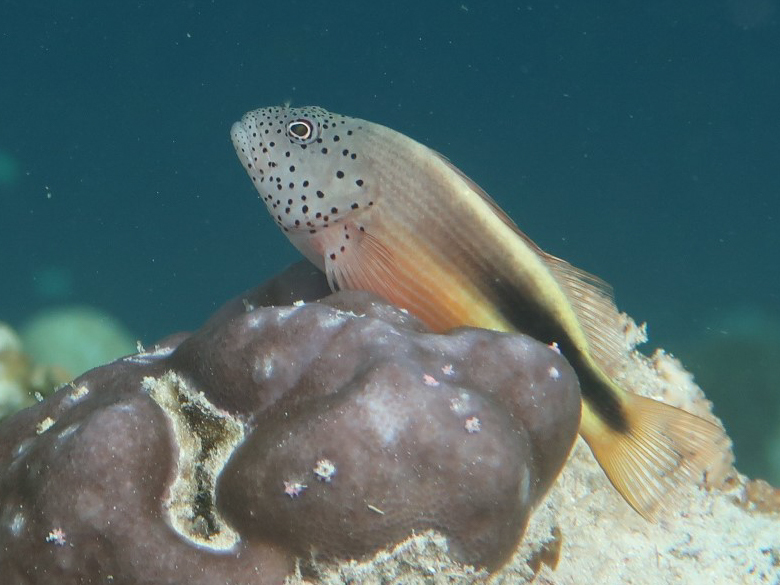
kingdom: Animalia
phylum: Chordata
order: Perciformes
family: Cirrhitidae
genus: Paracirrhites
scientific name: Paracirrhites forsteri
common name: Freckled hawkfish
